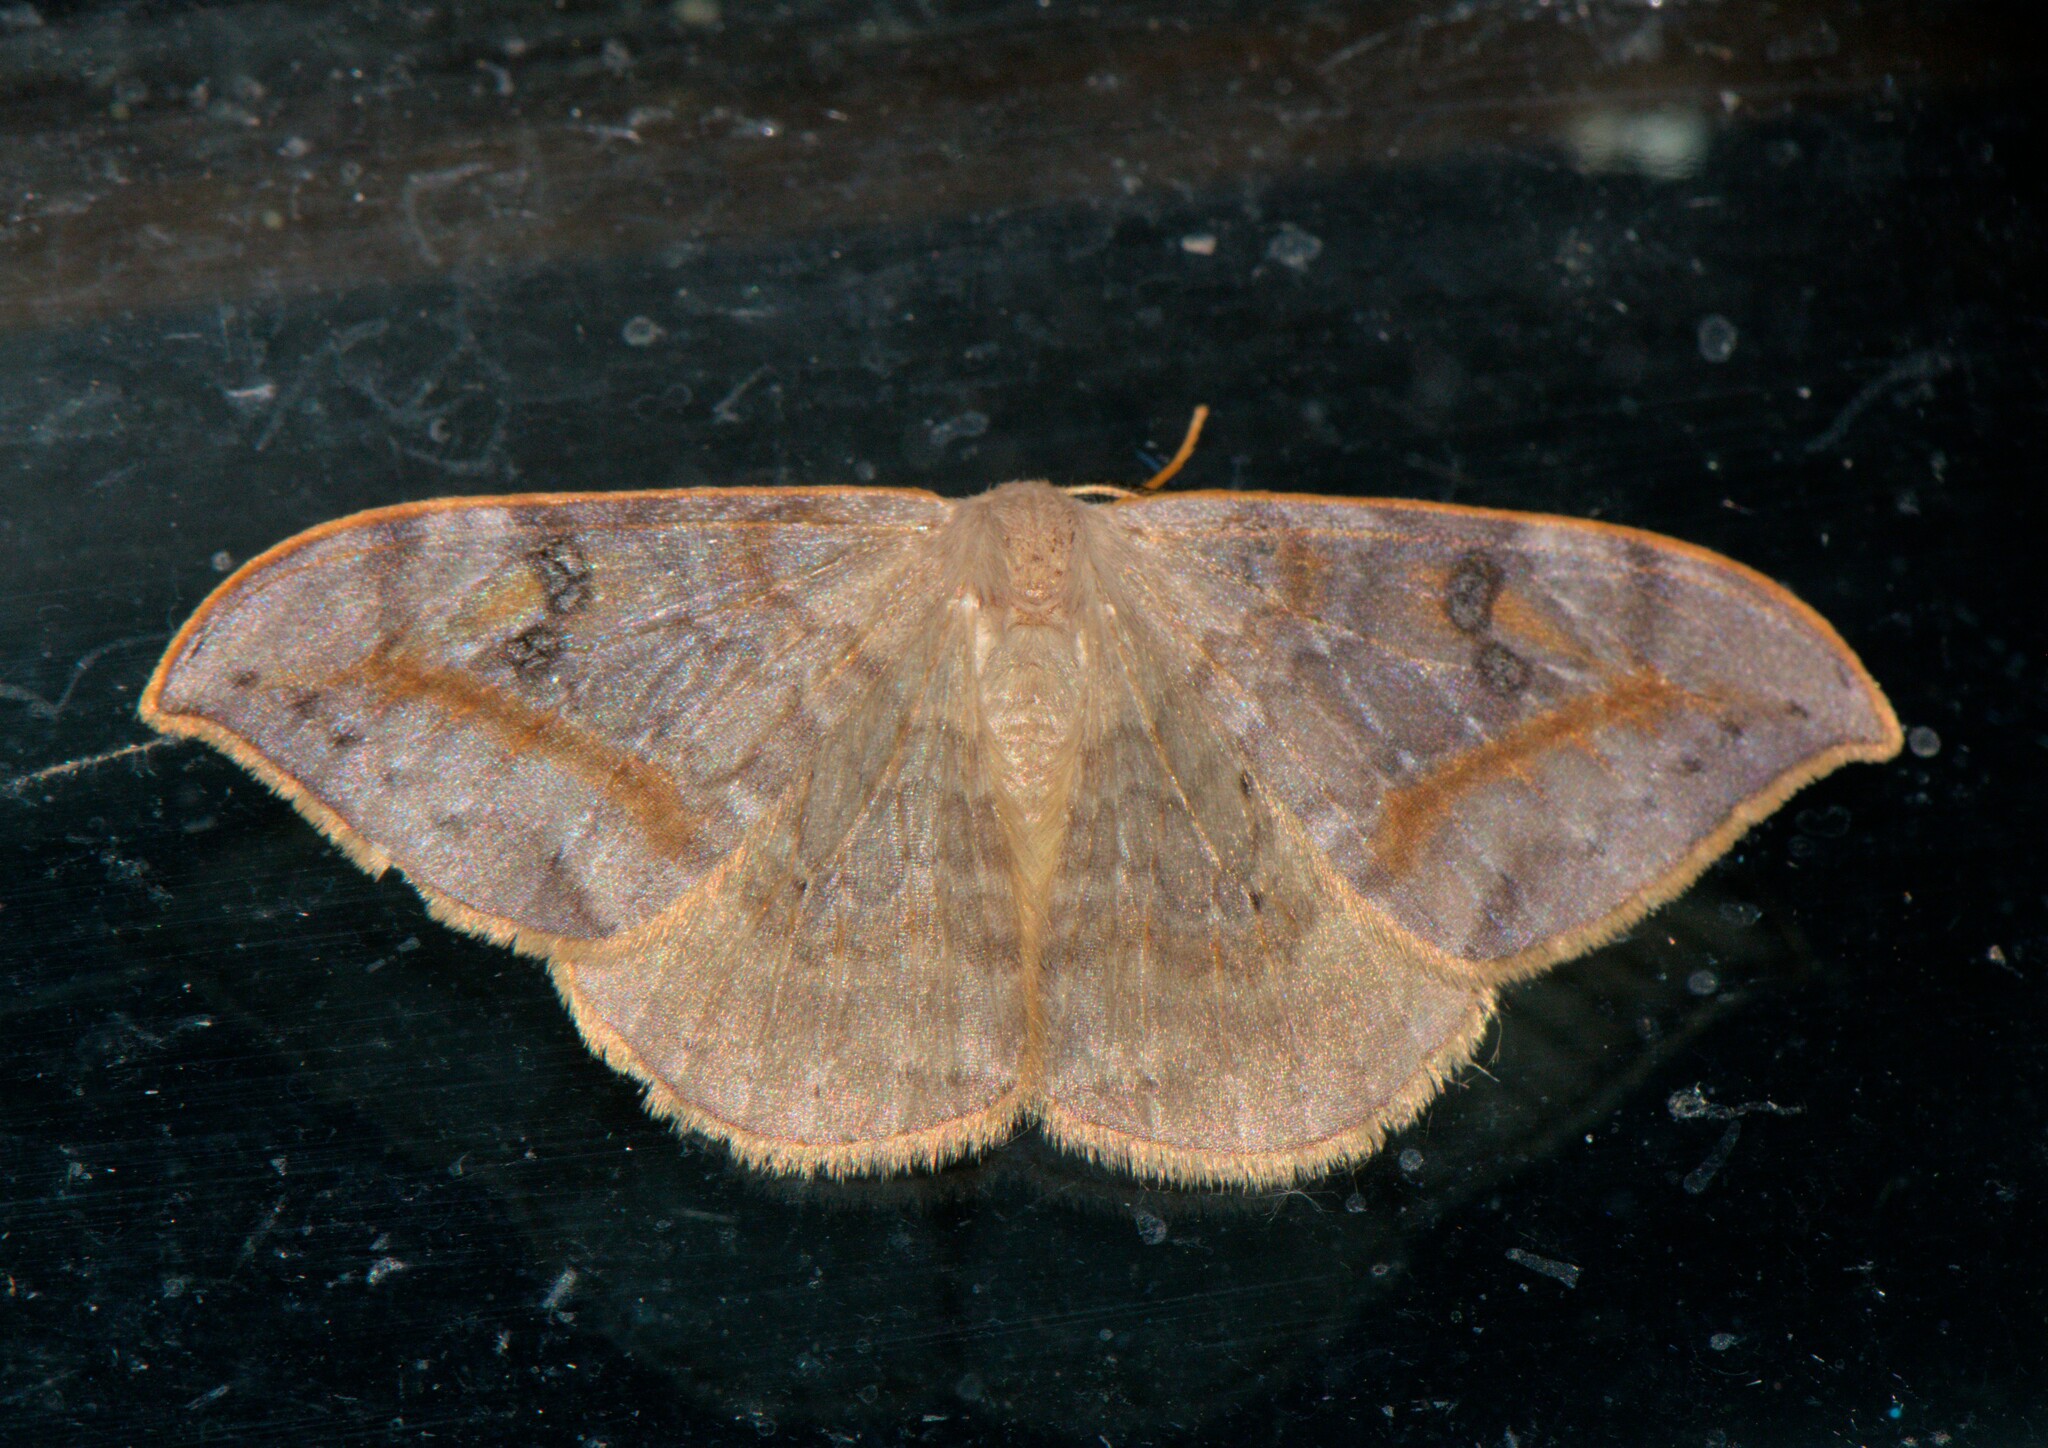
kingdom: Animalia
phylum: Arthropoda
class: Insecta
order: Lepidoptera
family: Drepanidae
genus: Drepana
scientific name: Drepana dispilata
